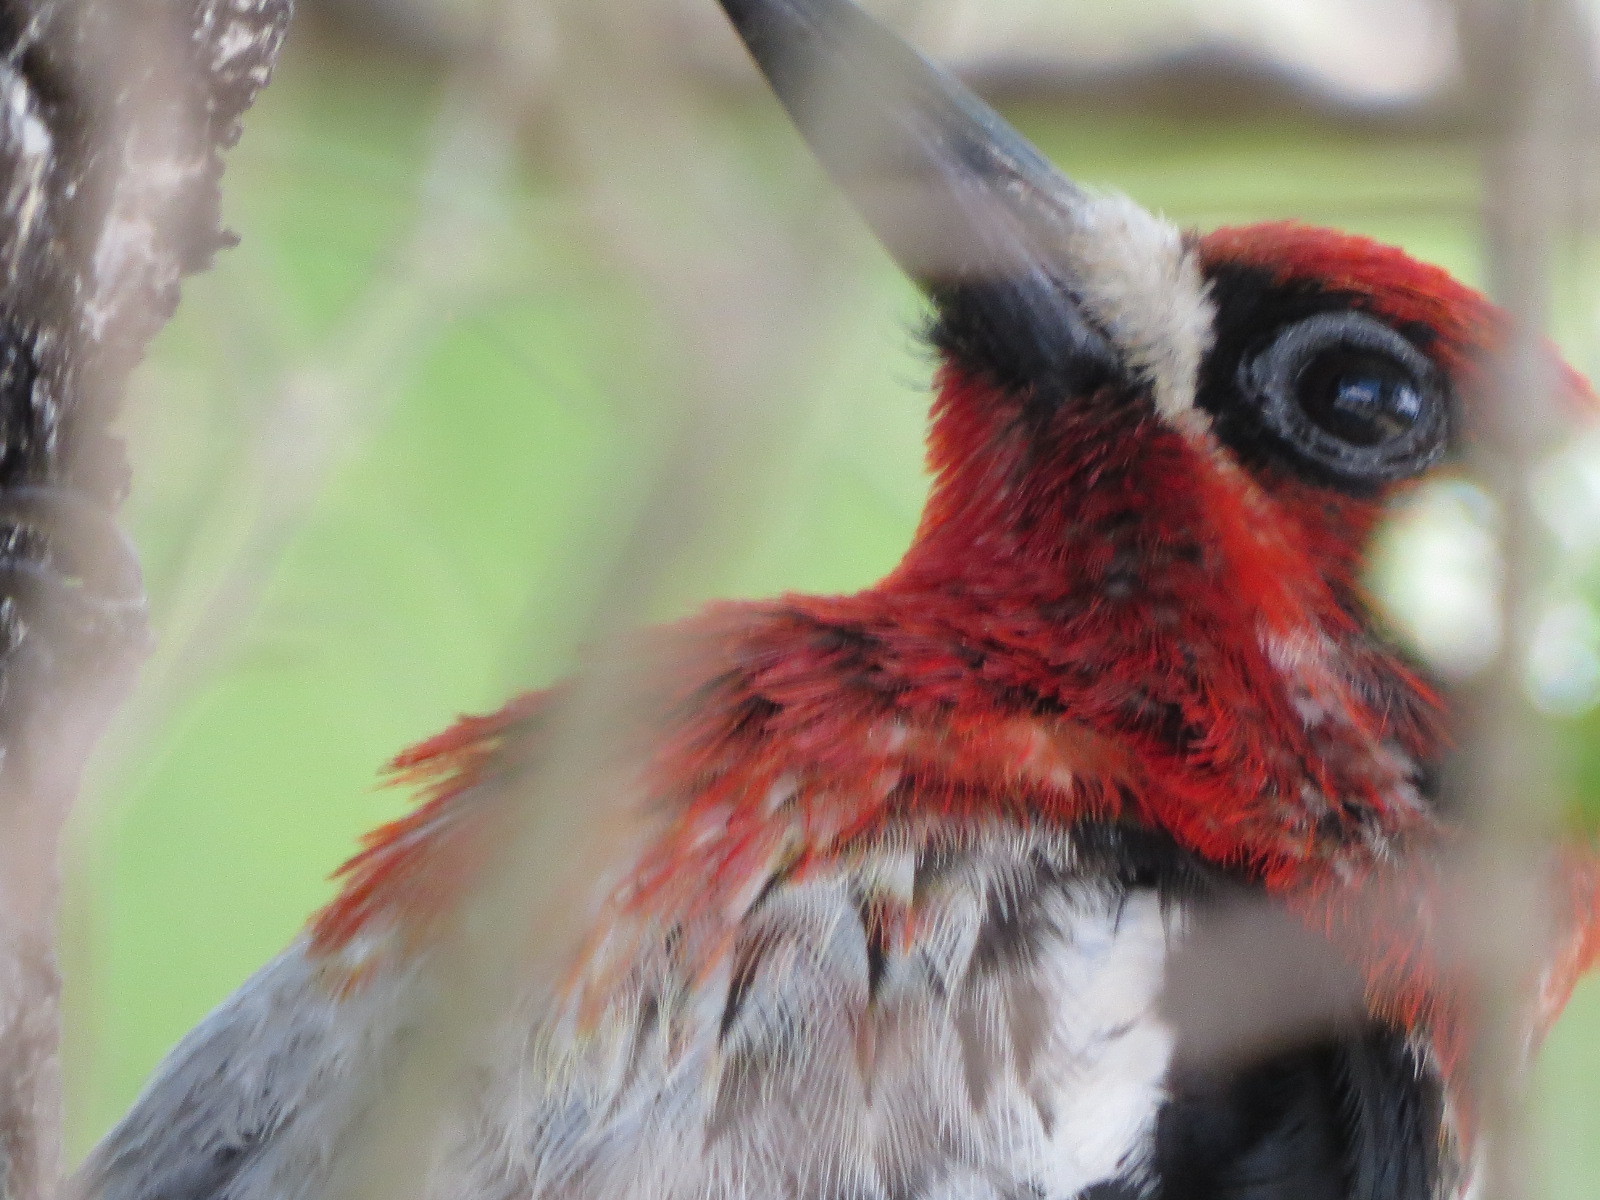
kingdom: Animalia
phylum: Chordata
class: Aves
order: Piciformes
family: Picidae
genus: Sphyrapicus
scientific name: Sphyrapicus ruber
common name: Red-breasted sapsucker
